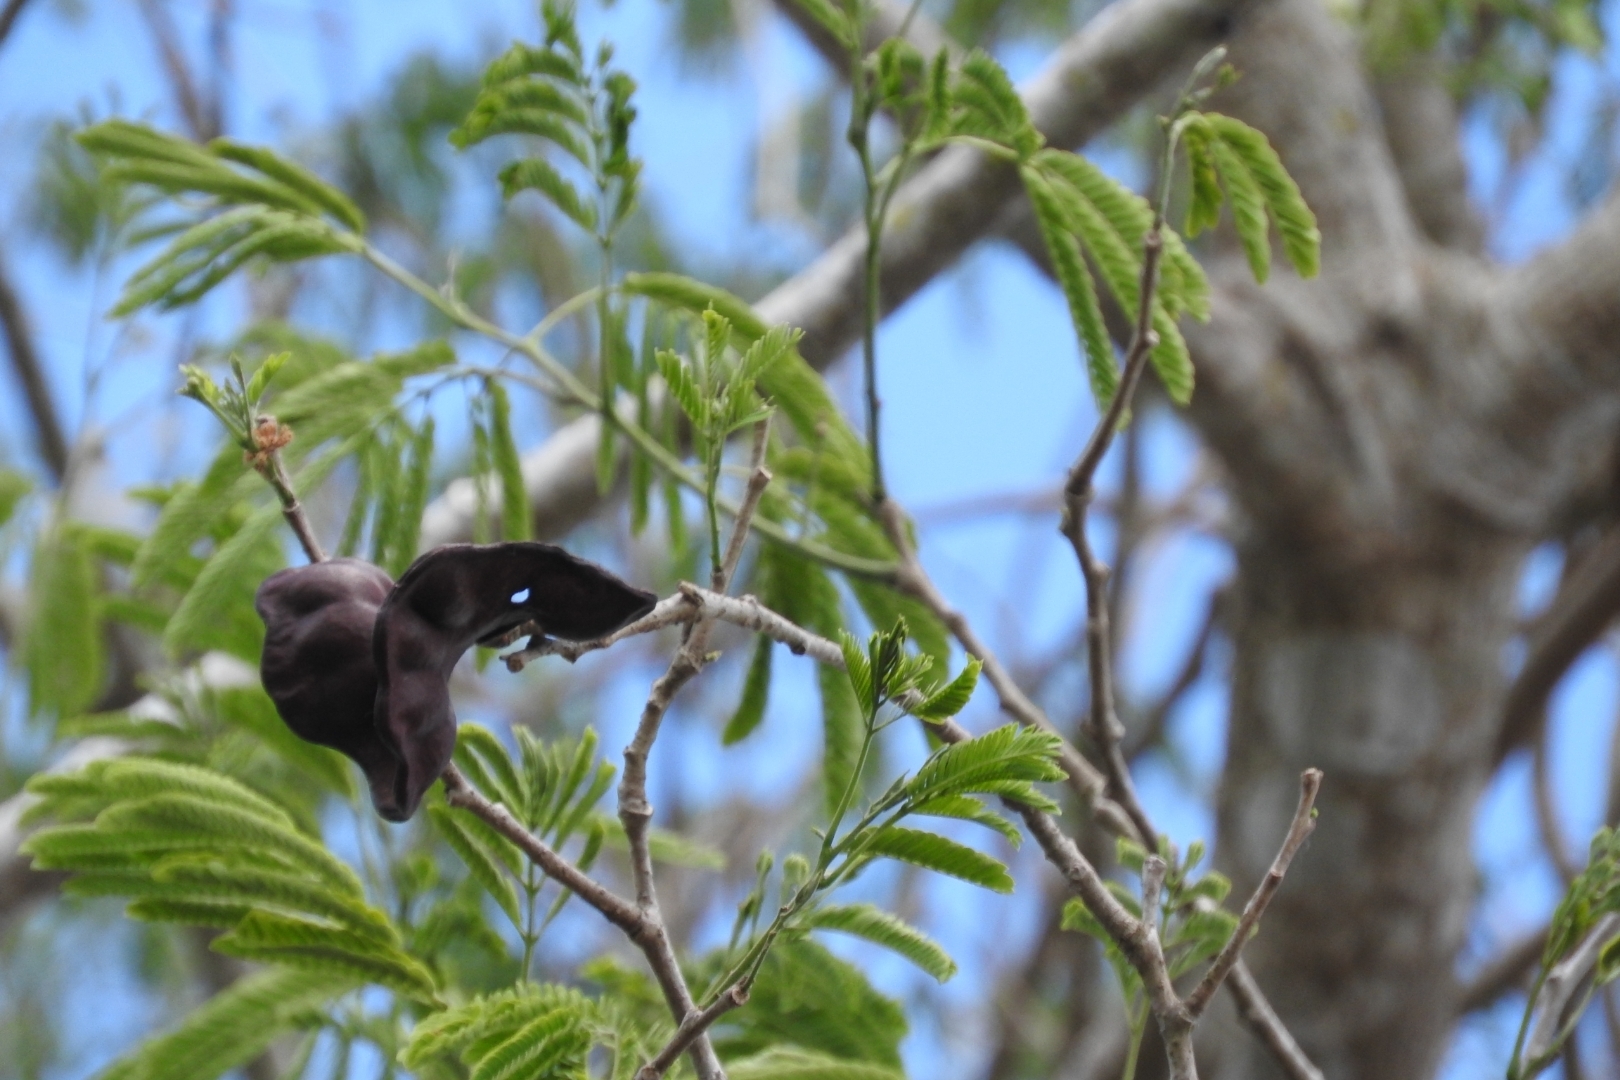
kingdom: Plantae
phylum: Tracheophyta
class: Magnoliopsida
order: Fabales
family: Fabaceae
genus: Enterolobium
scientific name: Enterolobium cyclocarpum
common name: Ear tree
